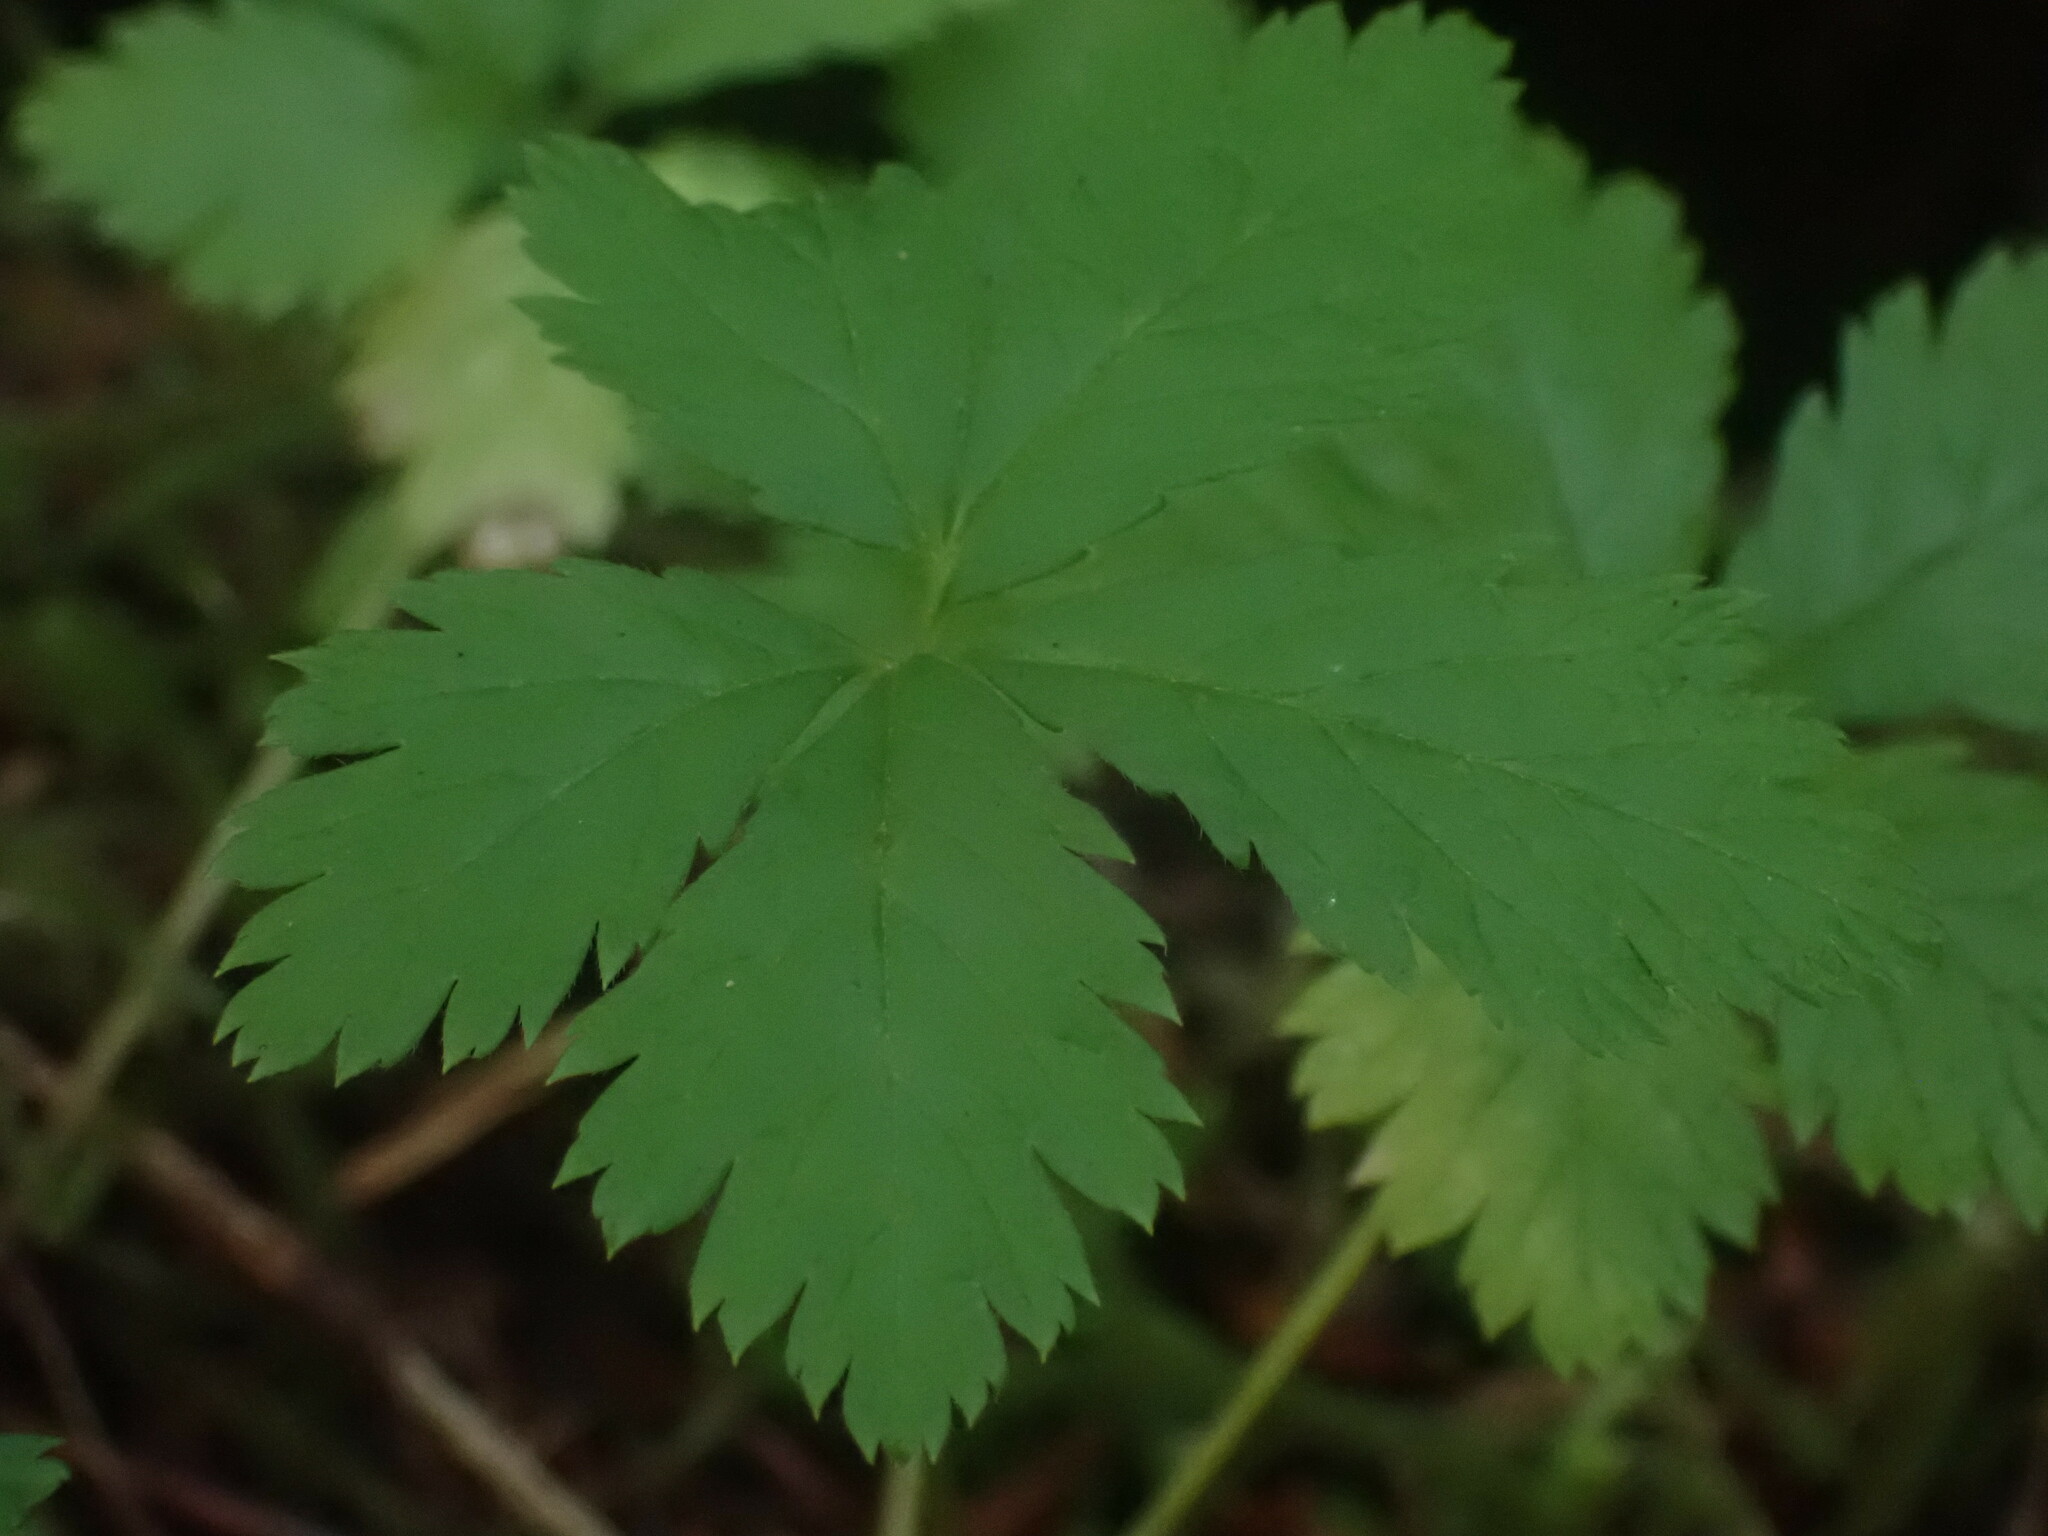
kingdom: Plantae
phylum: Tracheophyta
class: Magnoliopsida
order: Rosales
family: Rosaceae
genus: Rubus
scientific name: Rubus pedatus
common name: Creeping raspberry
